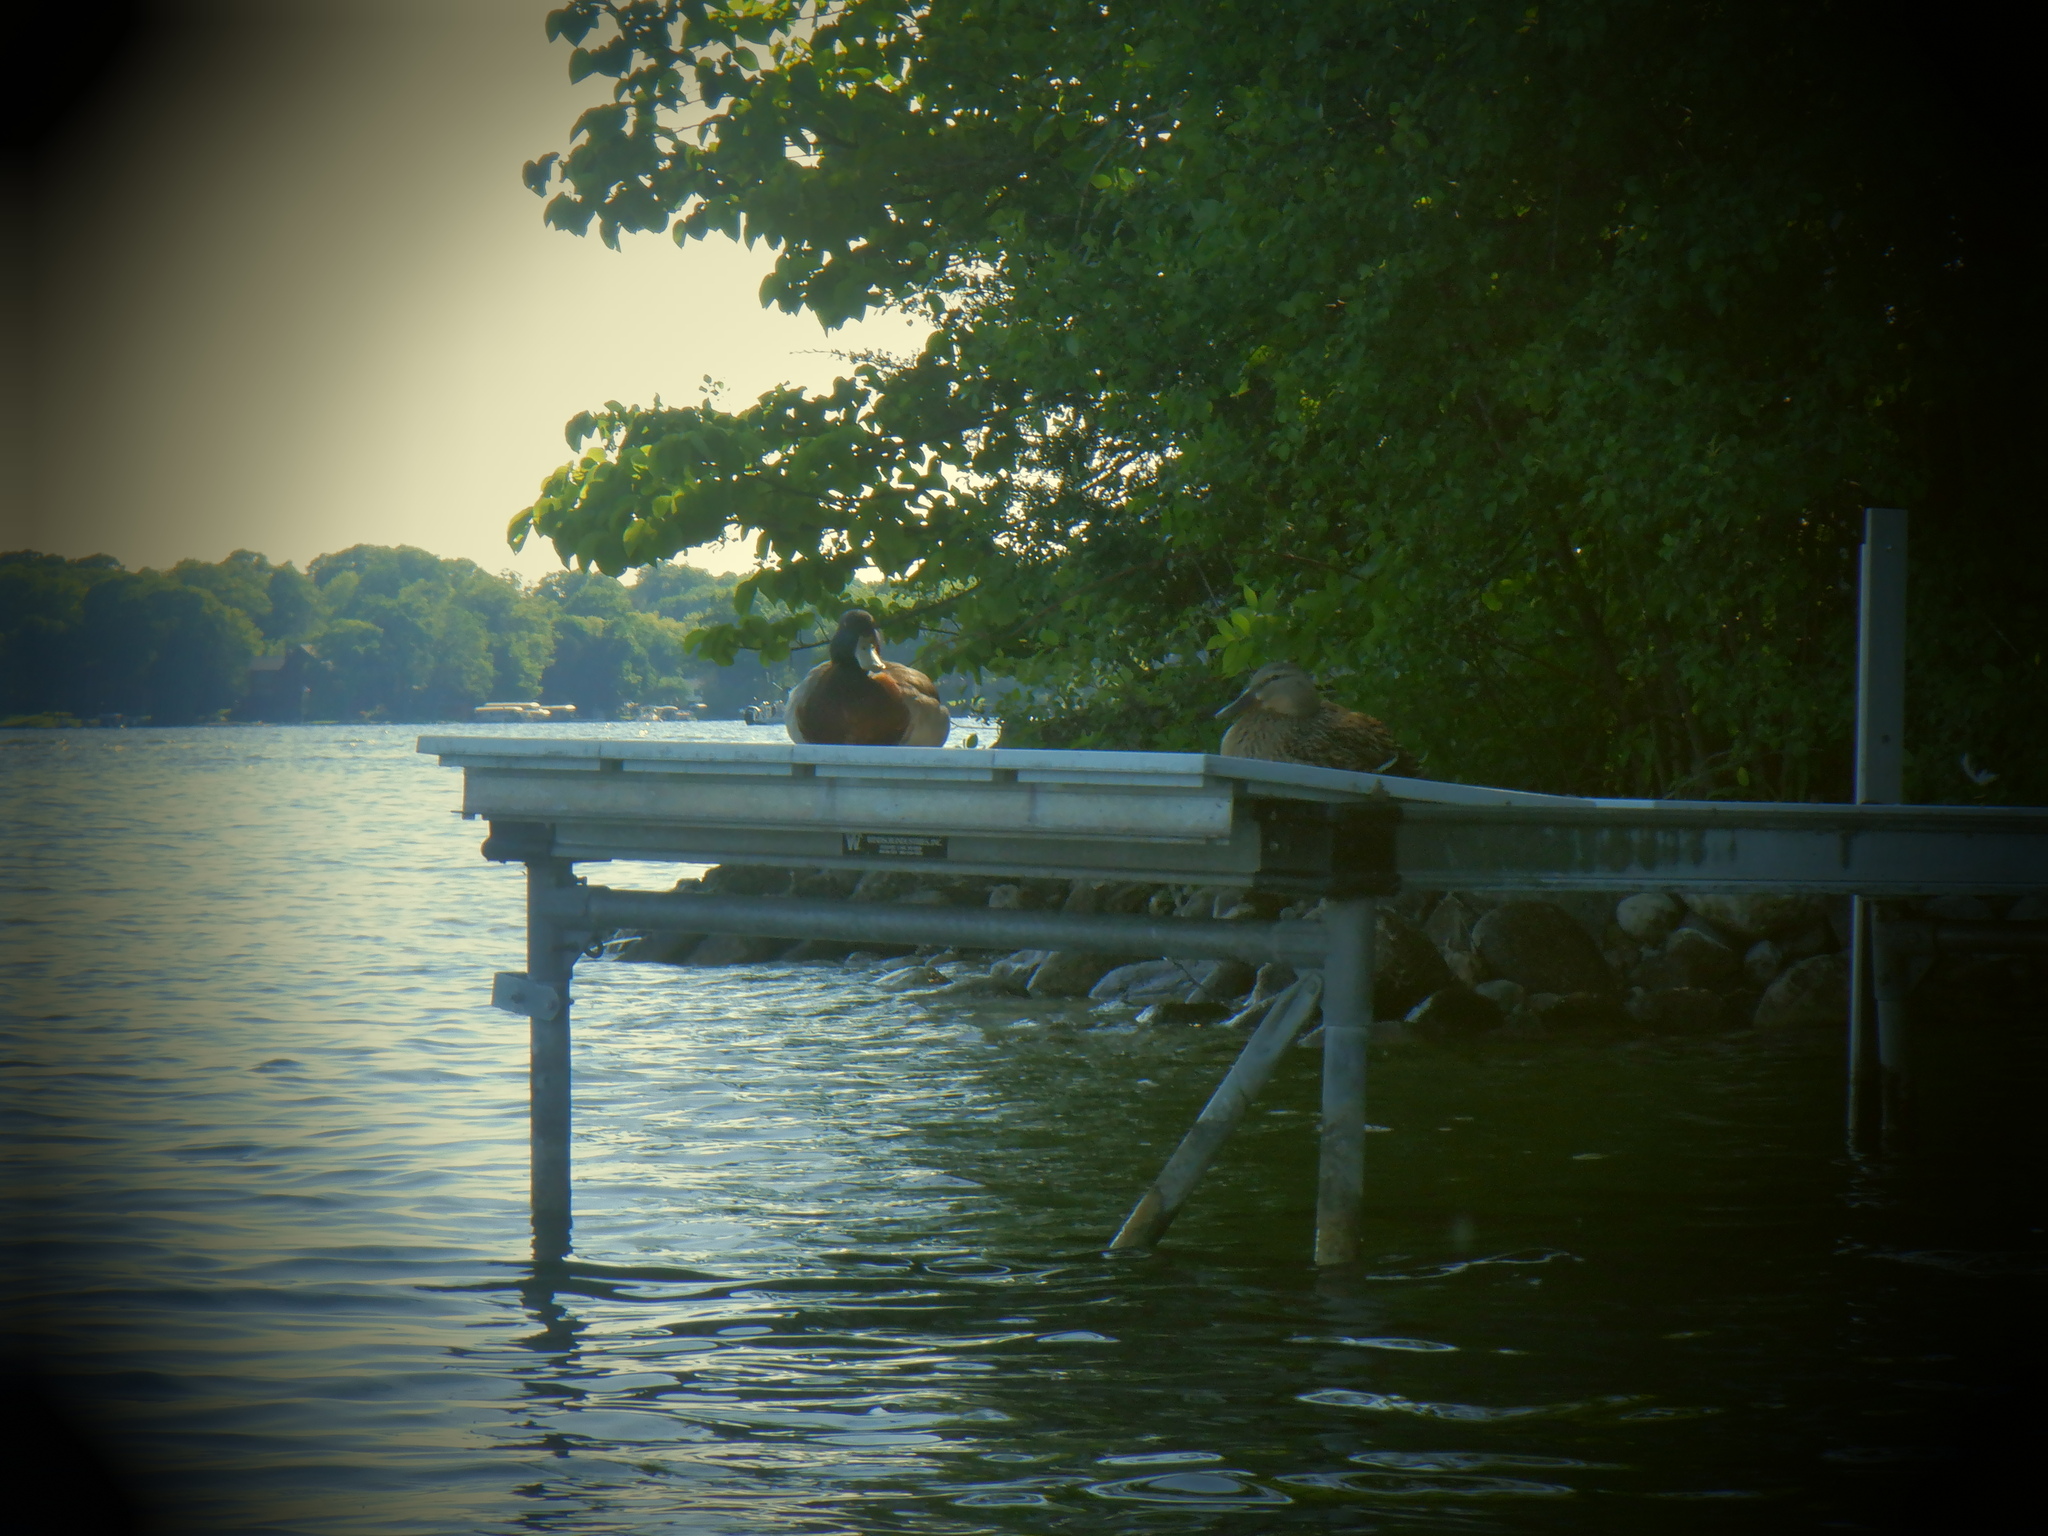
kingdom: Animalia
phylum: Chordata
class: Aves
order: Anseriformes
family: Anatidae
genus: Anas
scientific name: Anas platyrhynchos
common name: Mallard
